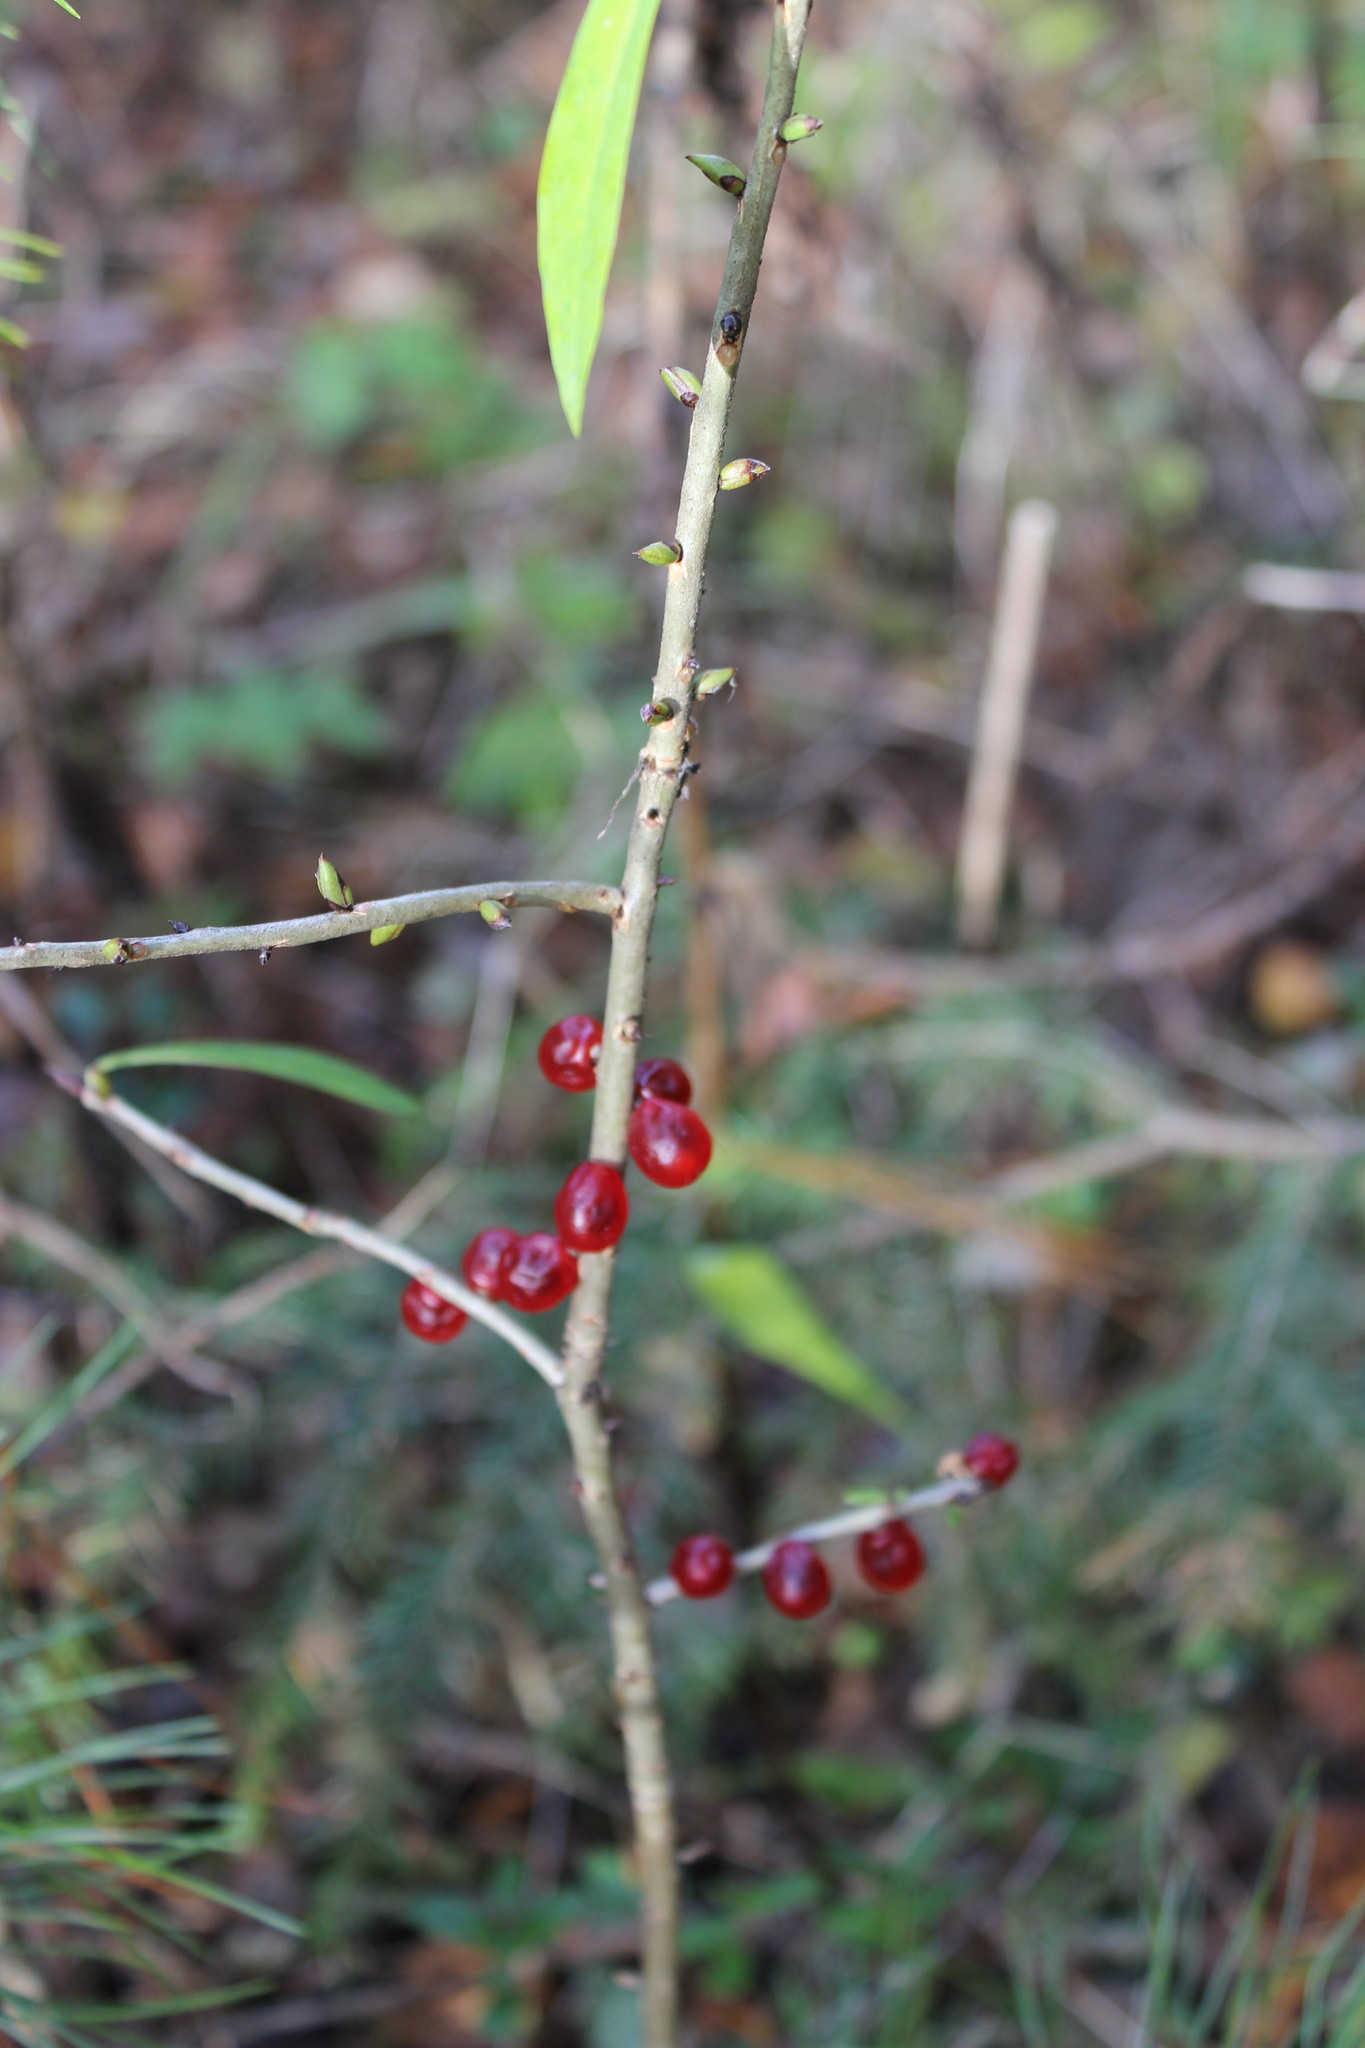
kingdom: Plantae
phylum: Tracheophyta
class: Magnoliopsida
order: Malvales
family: Thymelaeaceae
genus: Daphne
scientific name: Daphne mezereum
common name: Mezereon
